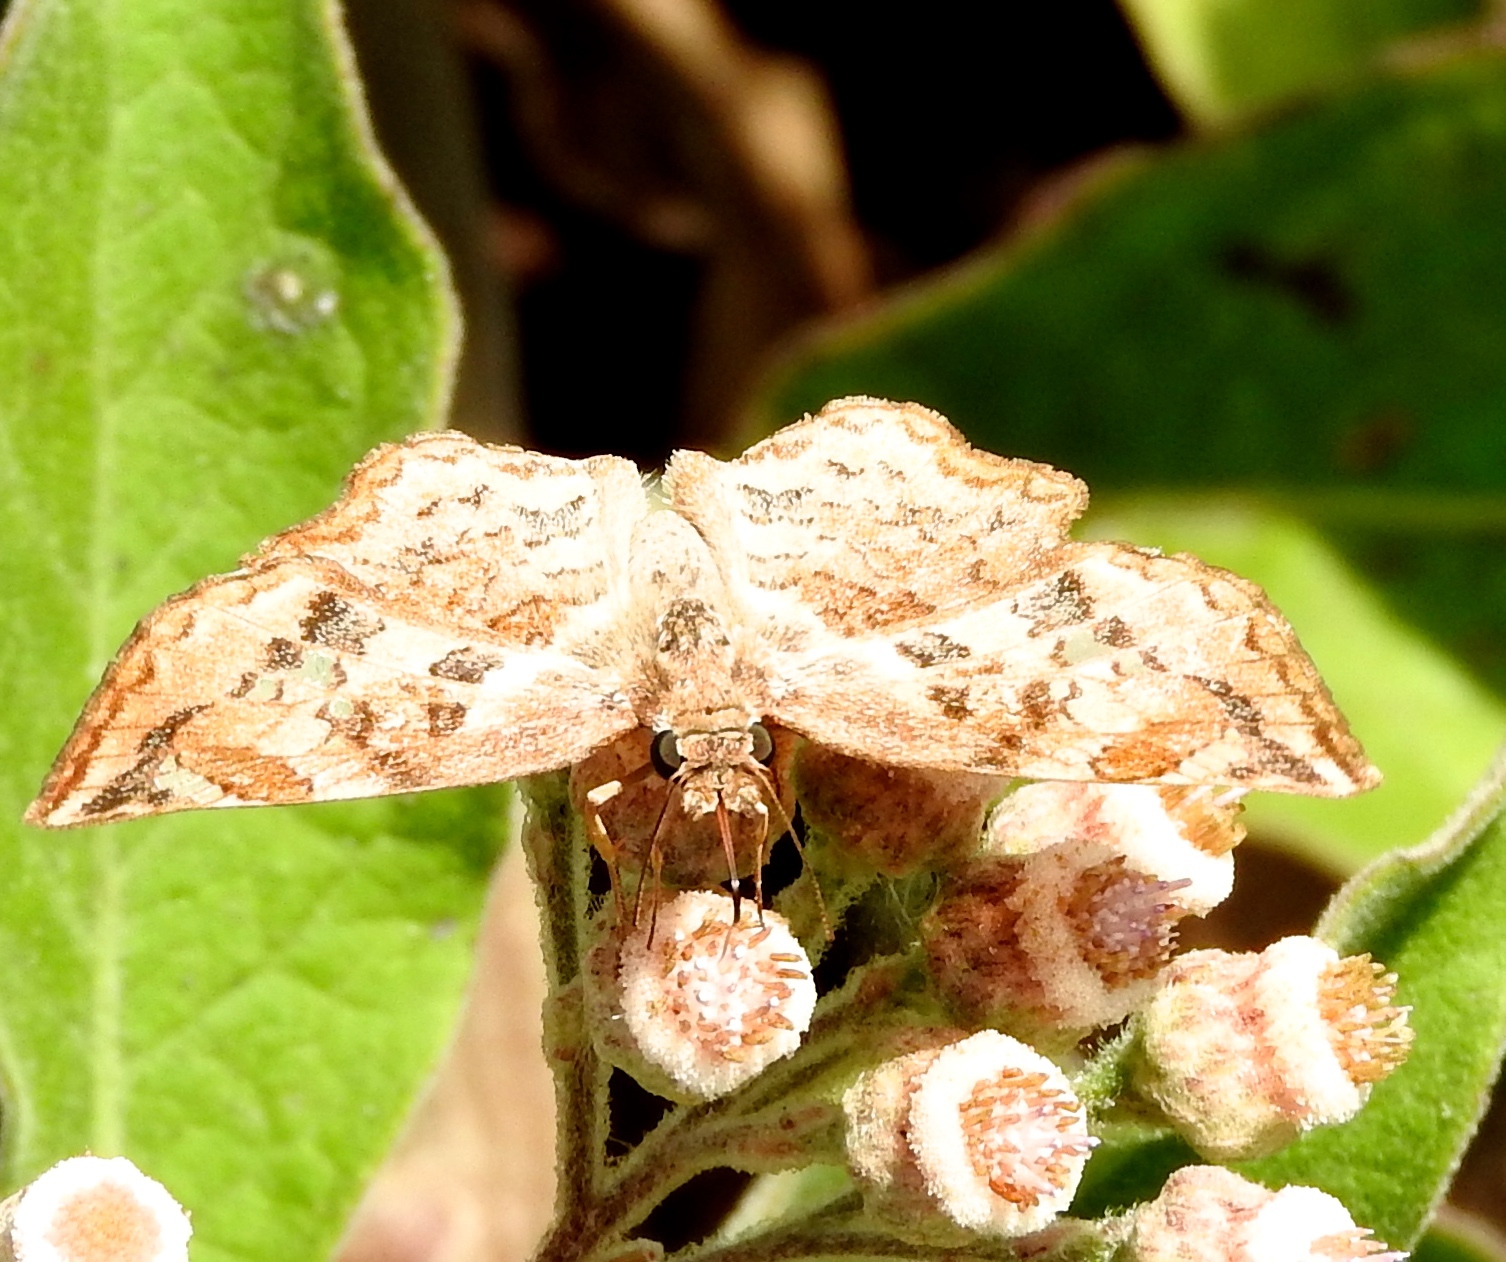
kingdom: Animalia
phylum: Arthropoda
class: Insecta
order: Lepidoptera
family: Hesperiidae
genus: Antigonus
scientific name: Antigonus erosus
